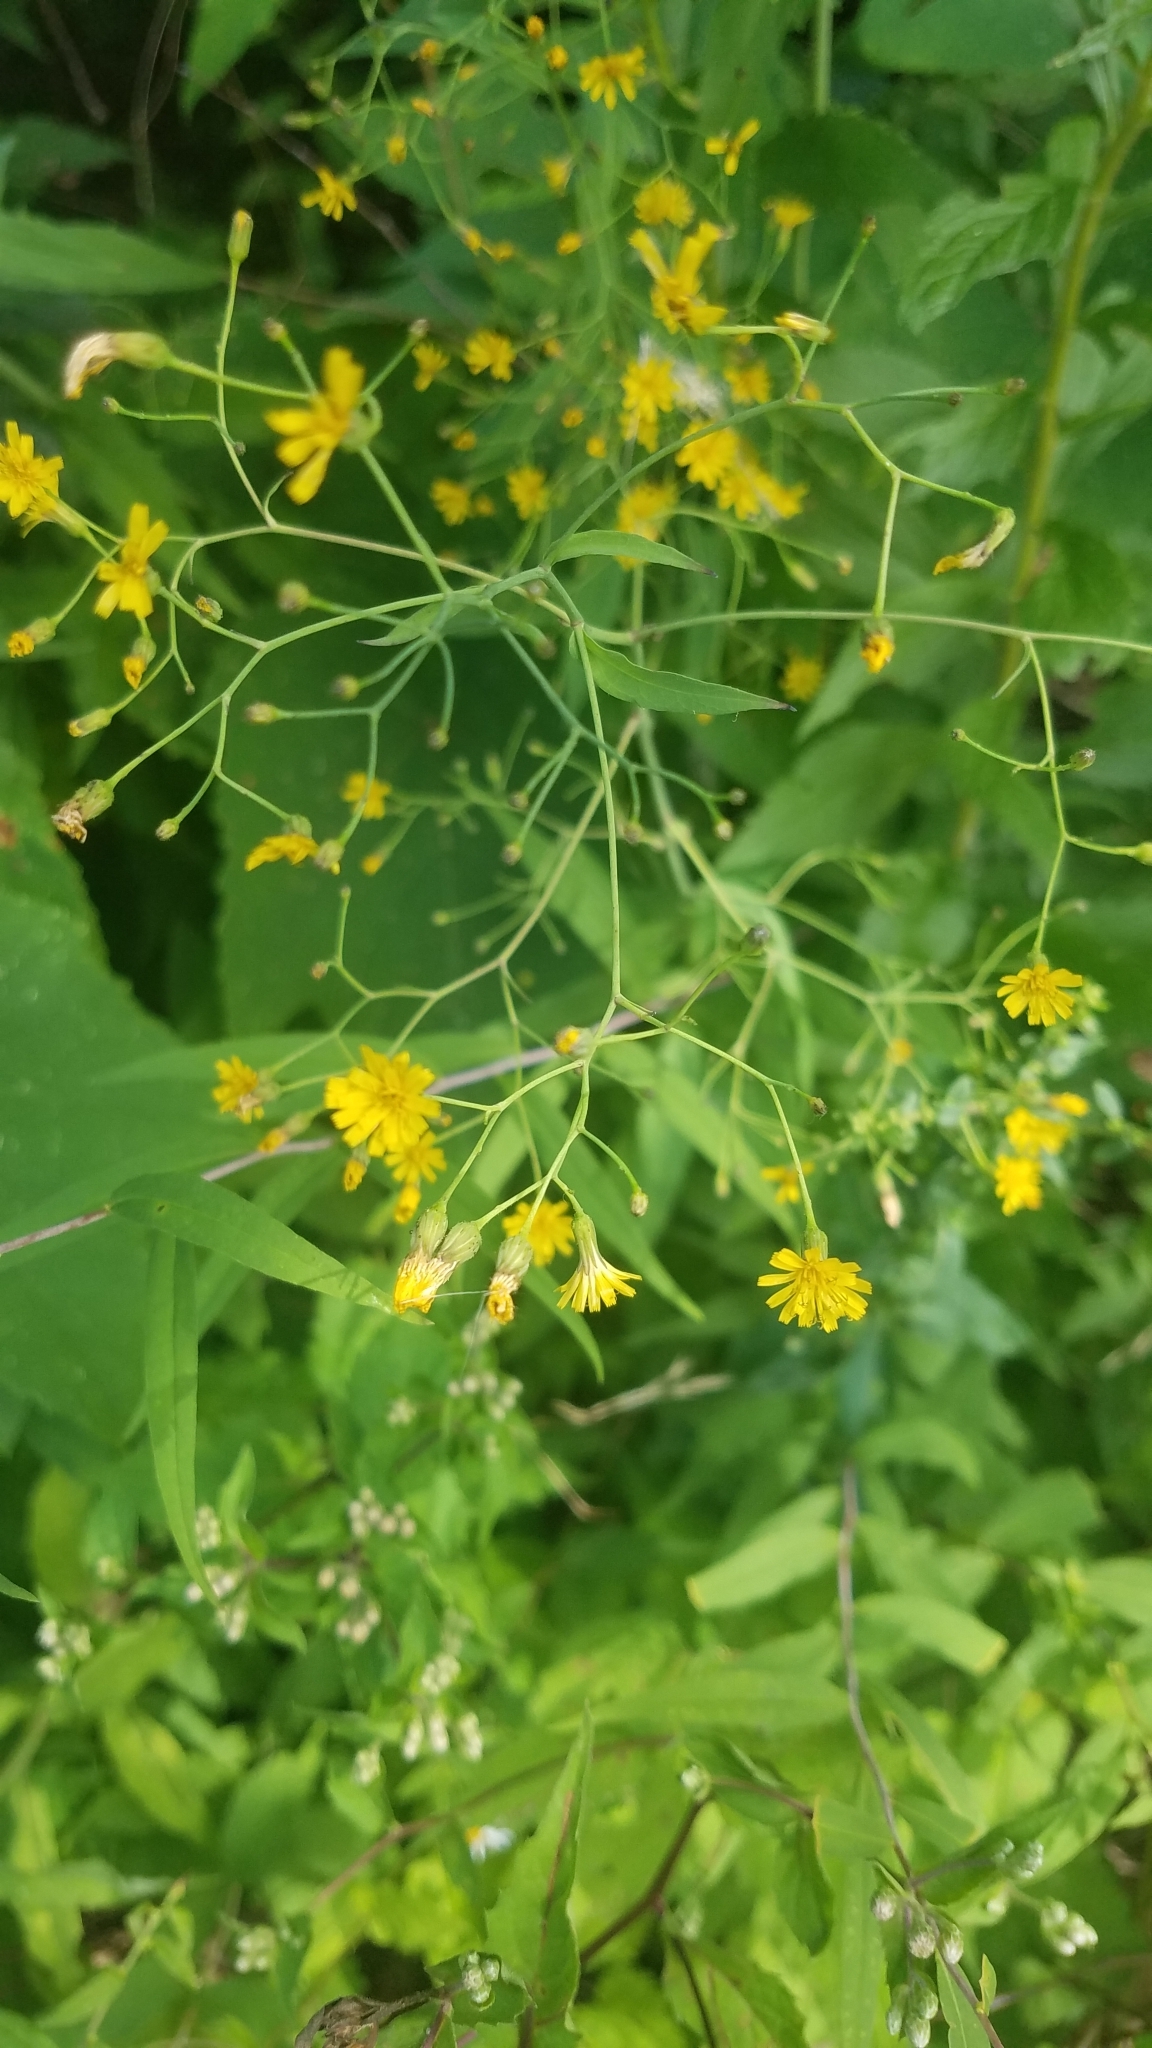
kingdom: Plantae
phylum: Tracheophyta
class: Magnoliopsida
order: Asterales
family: Asteraceae
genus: Lapsana
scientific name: Lapsana communis
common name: Nipplewort
